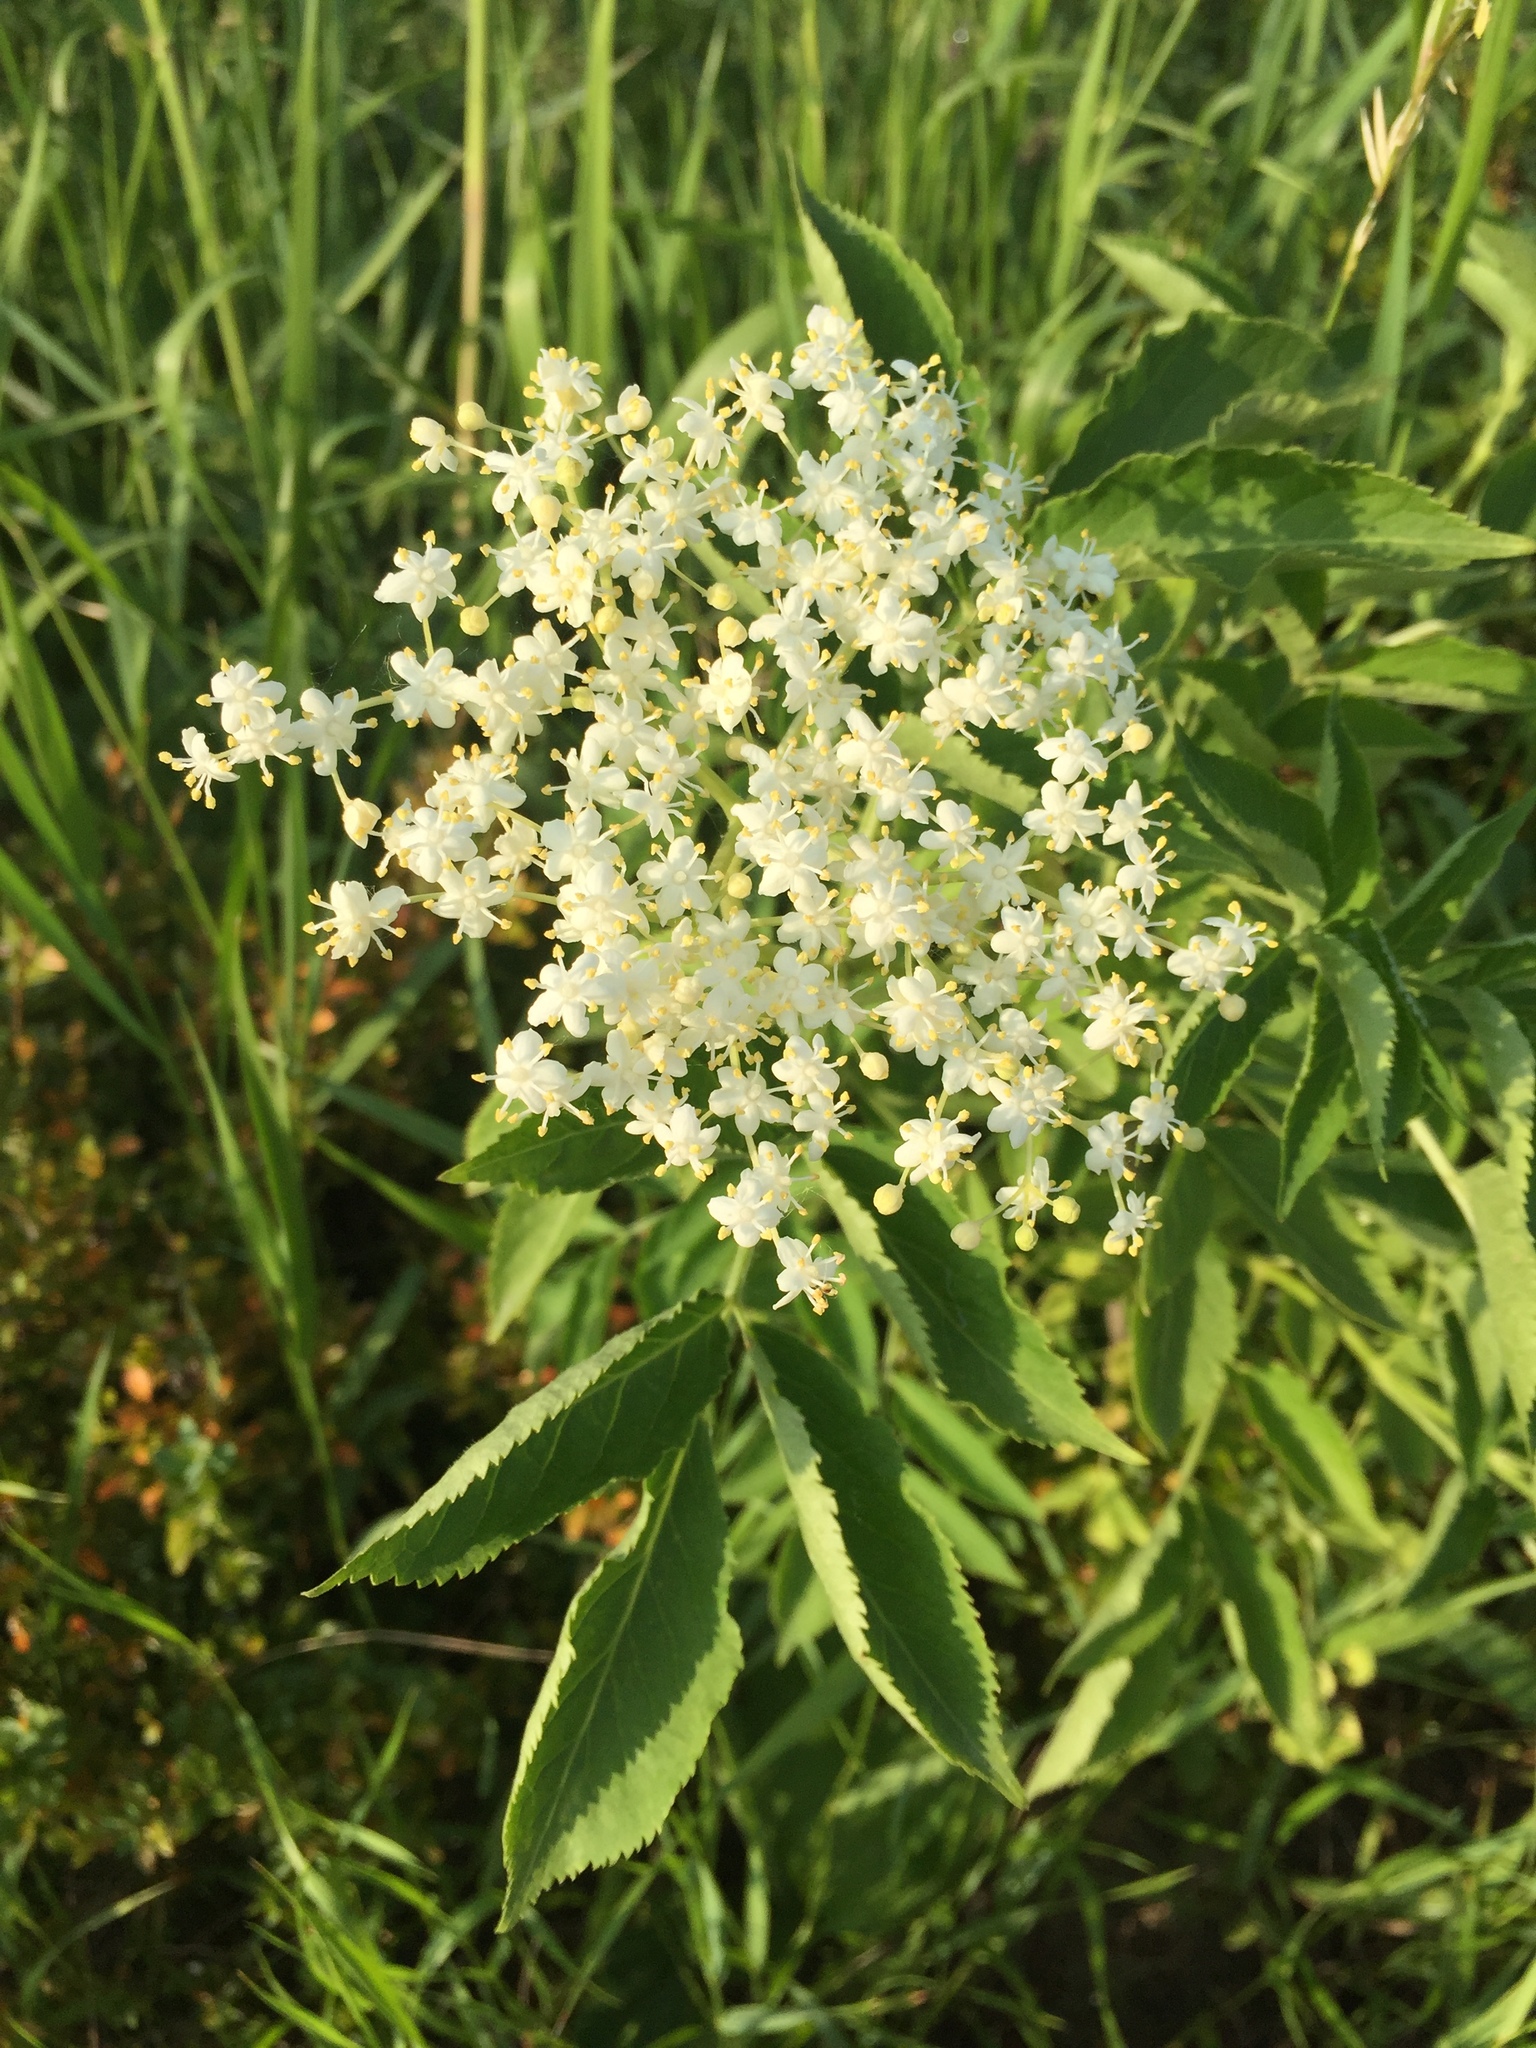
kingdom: Plantae
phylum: Tracheophyta
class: Magnoliopsida
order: Dipsacales
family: Viburnaceae
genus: Sambucus
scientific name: Sambucus nigra
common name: Elder
